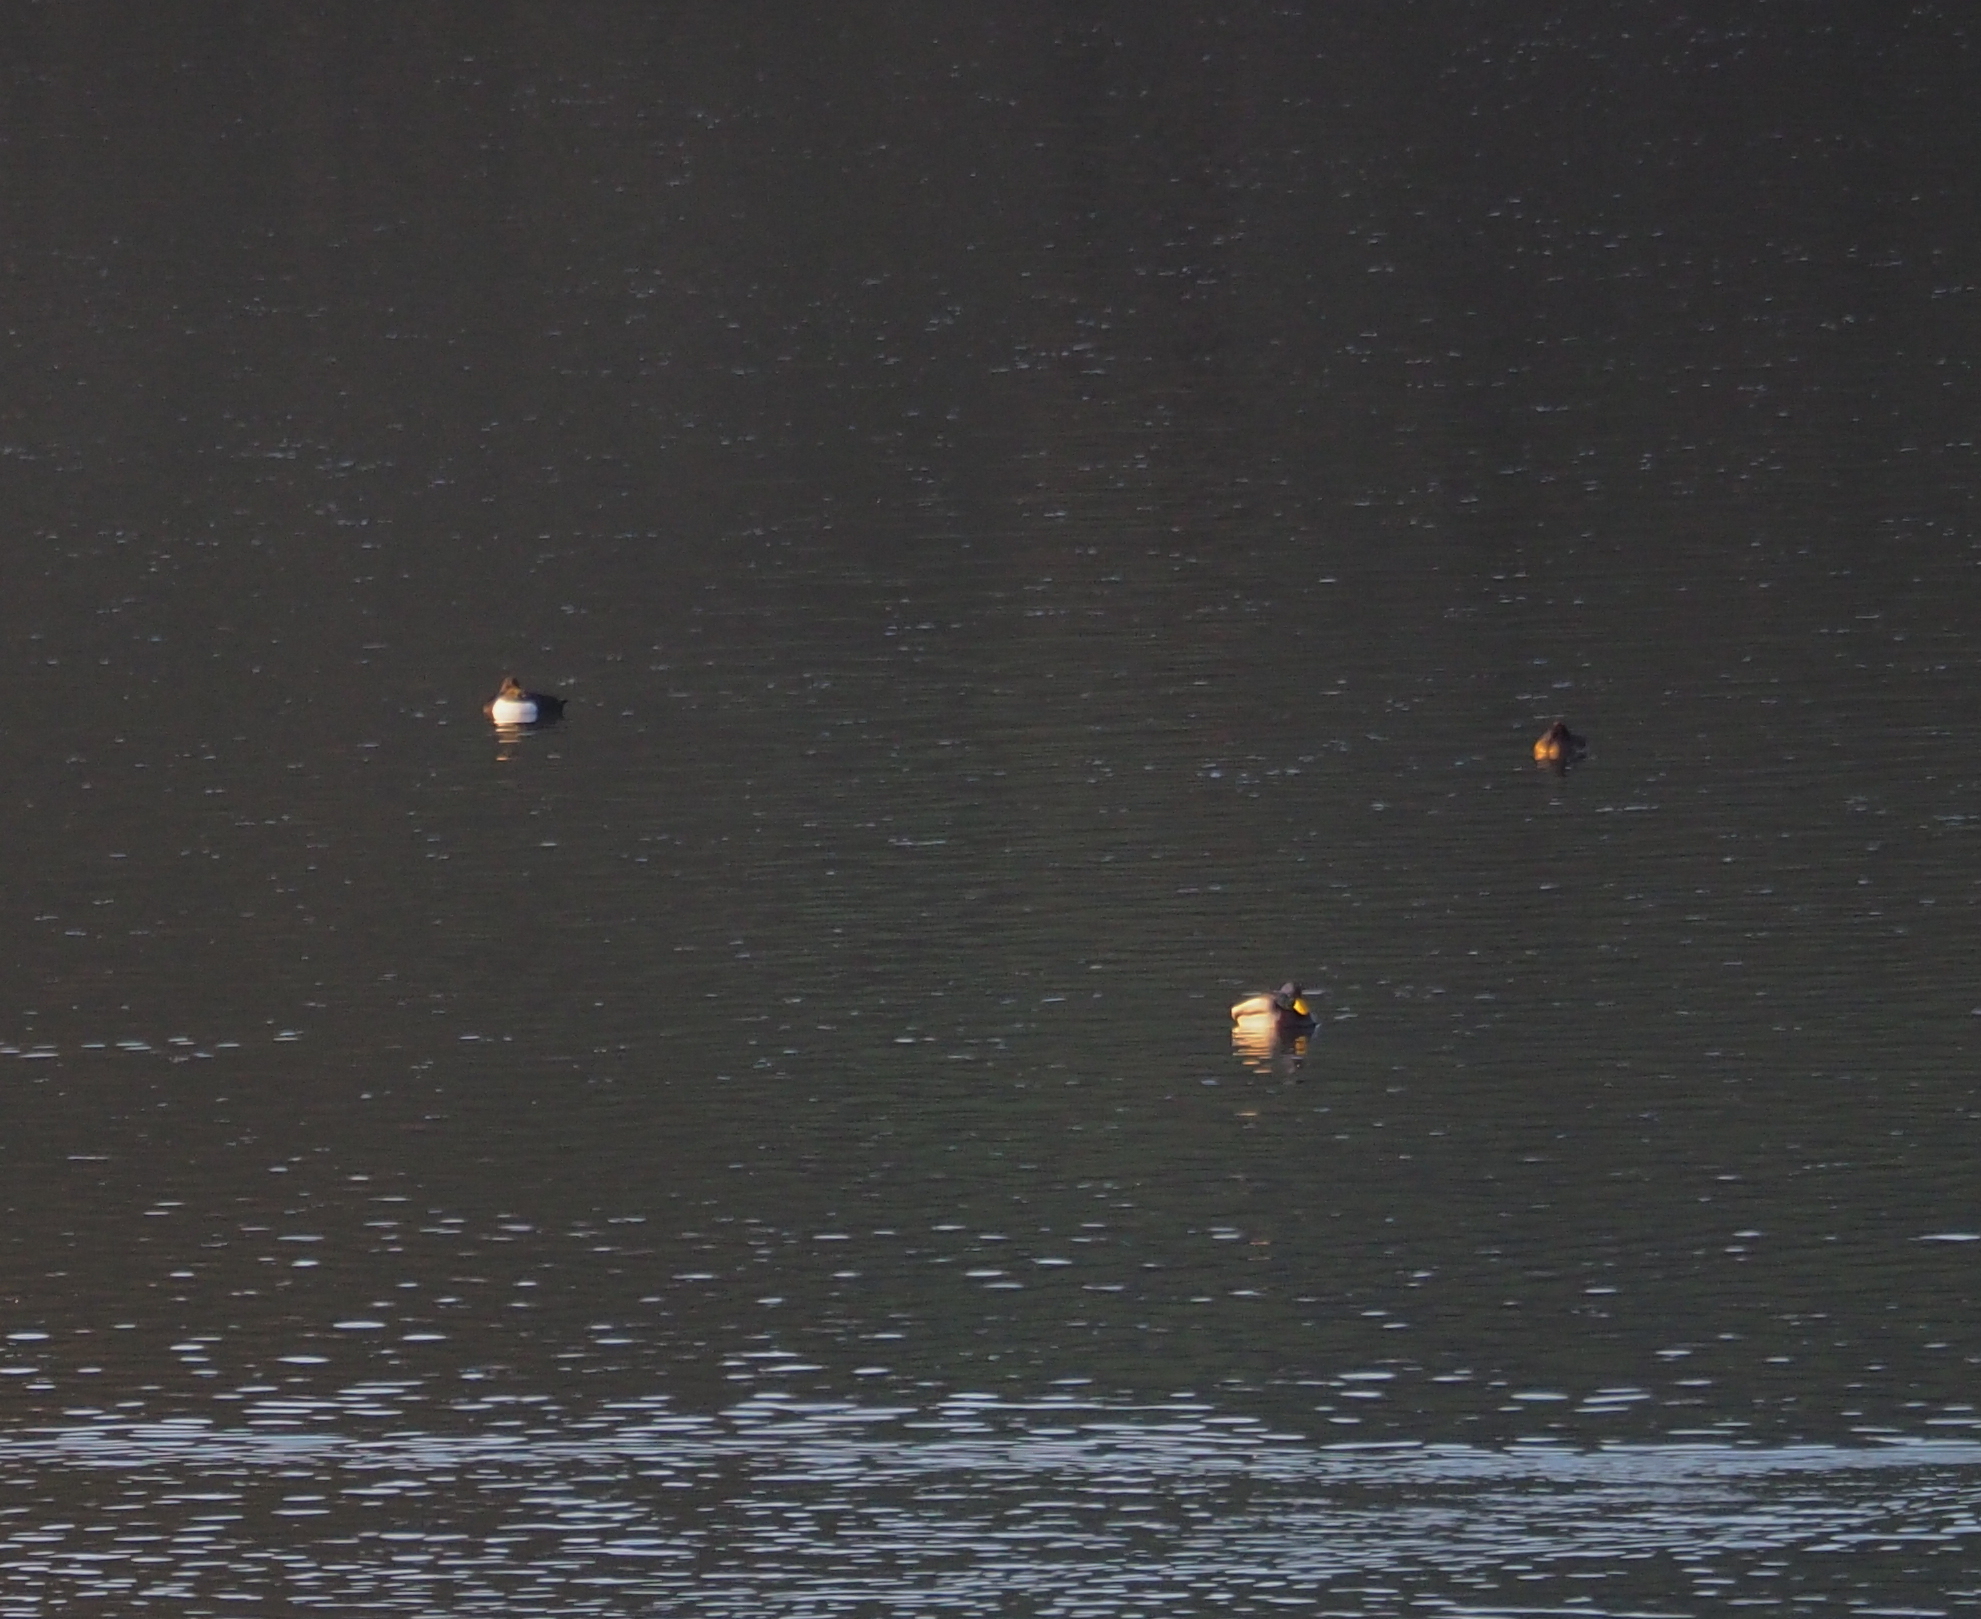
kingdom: Animalia
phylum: Chordata
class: Aves
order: Anseriformes
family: Anatidae
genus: Aythya
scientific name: Aythya fuligula
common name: Tufted duck
